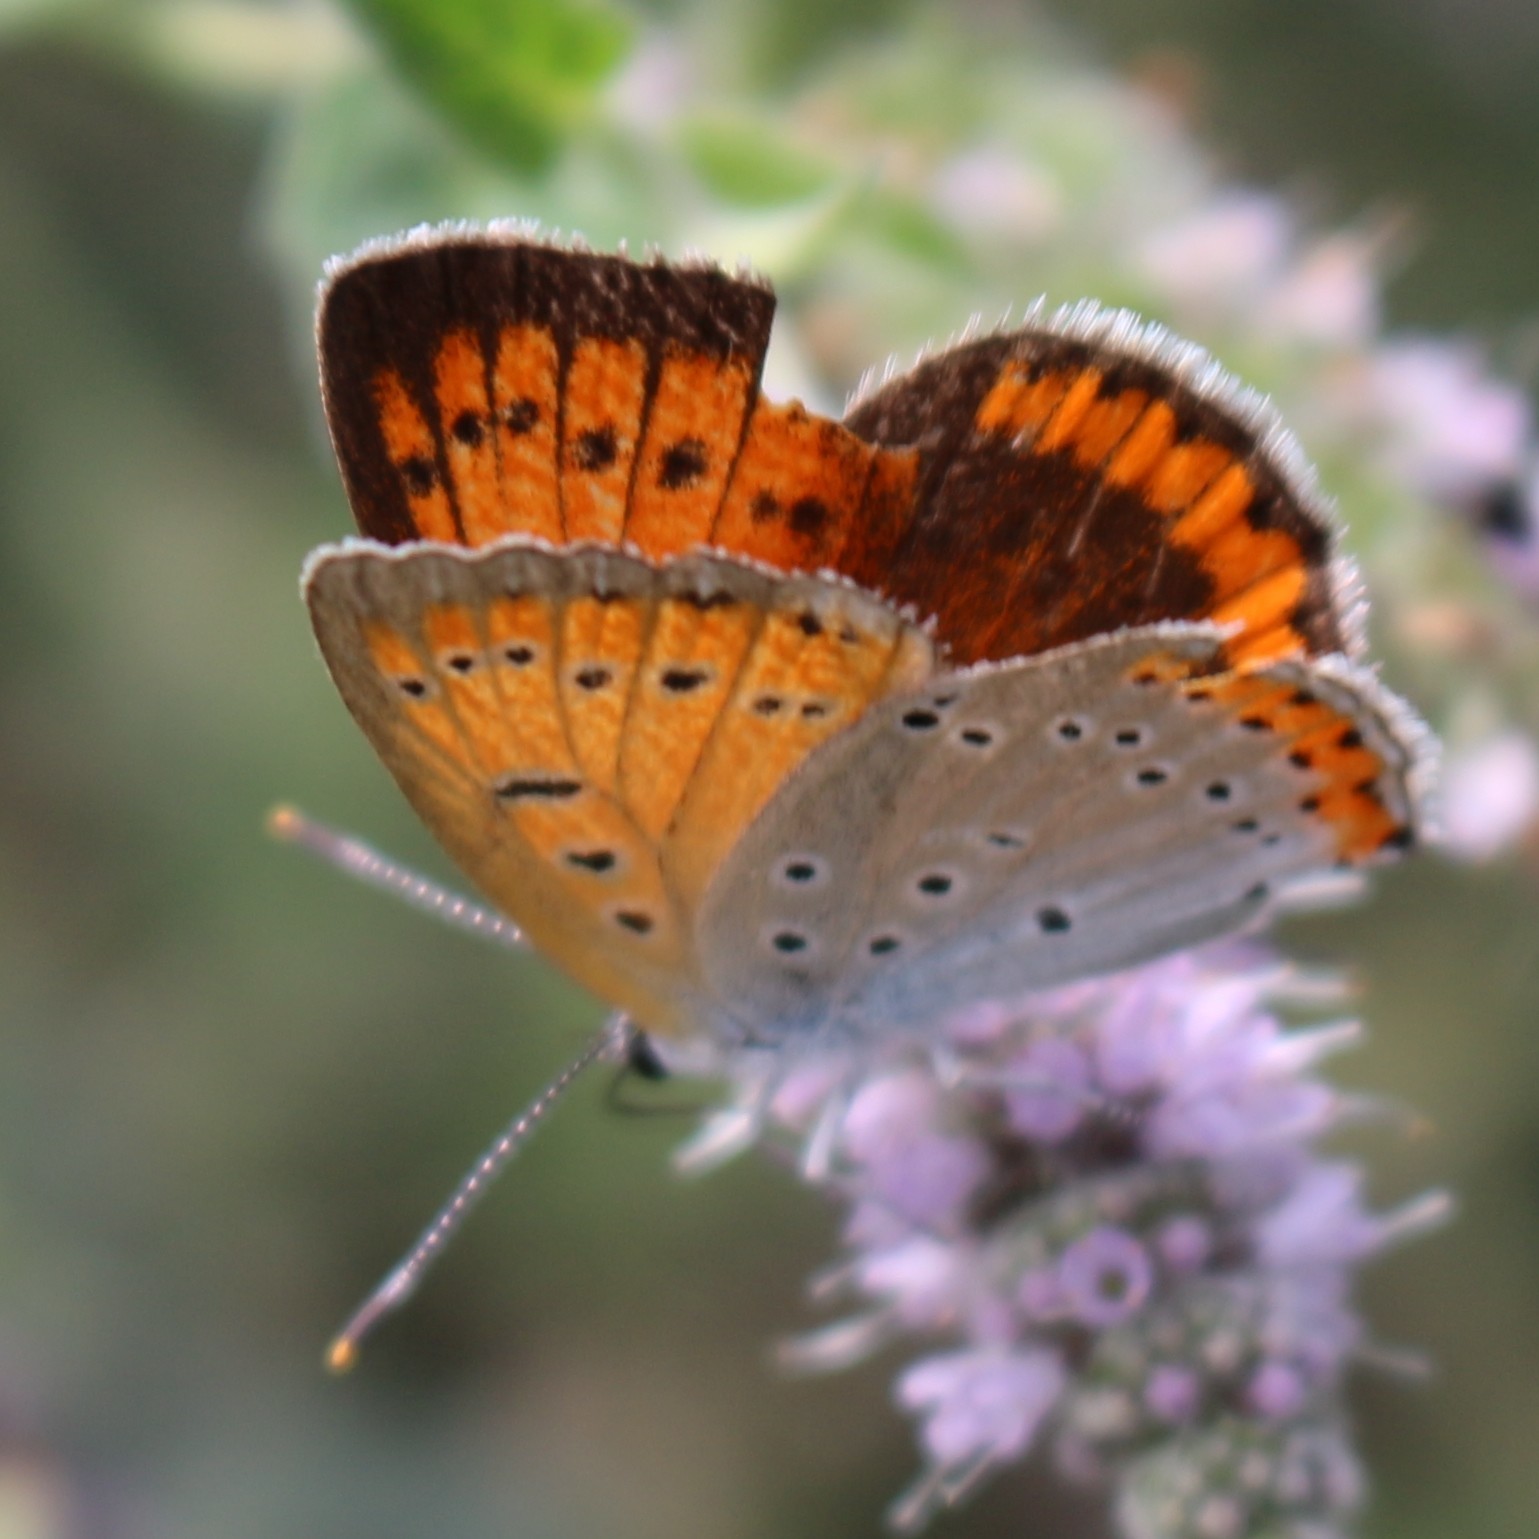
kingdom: Animalia
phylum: Arthropoda
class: Insecta
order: Lepidoptera
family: Lycaenidae
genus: Lycaena
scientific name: Lycaena dispar
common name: Large copper
